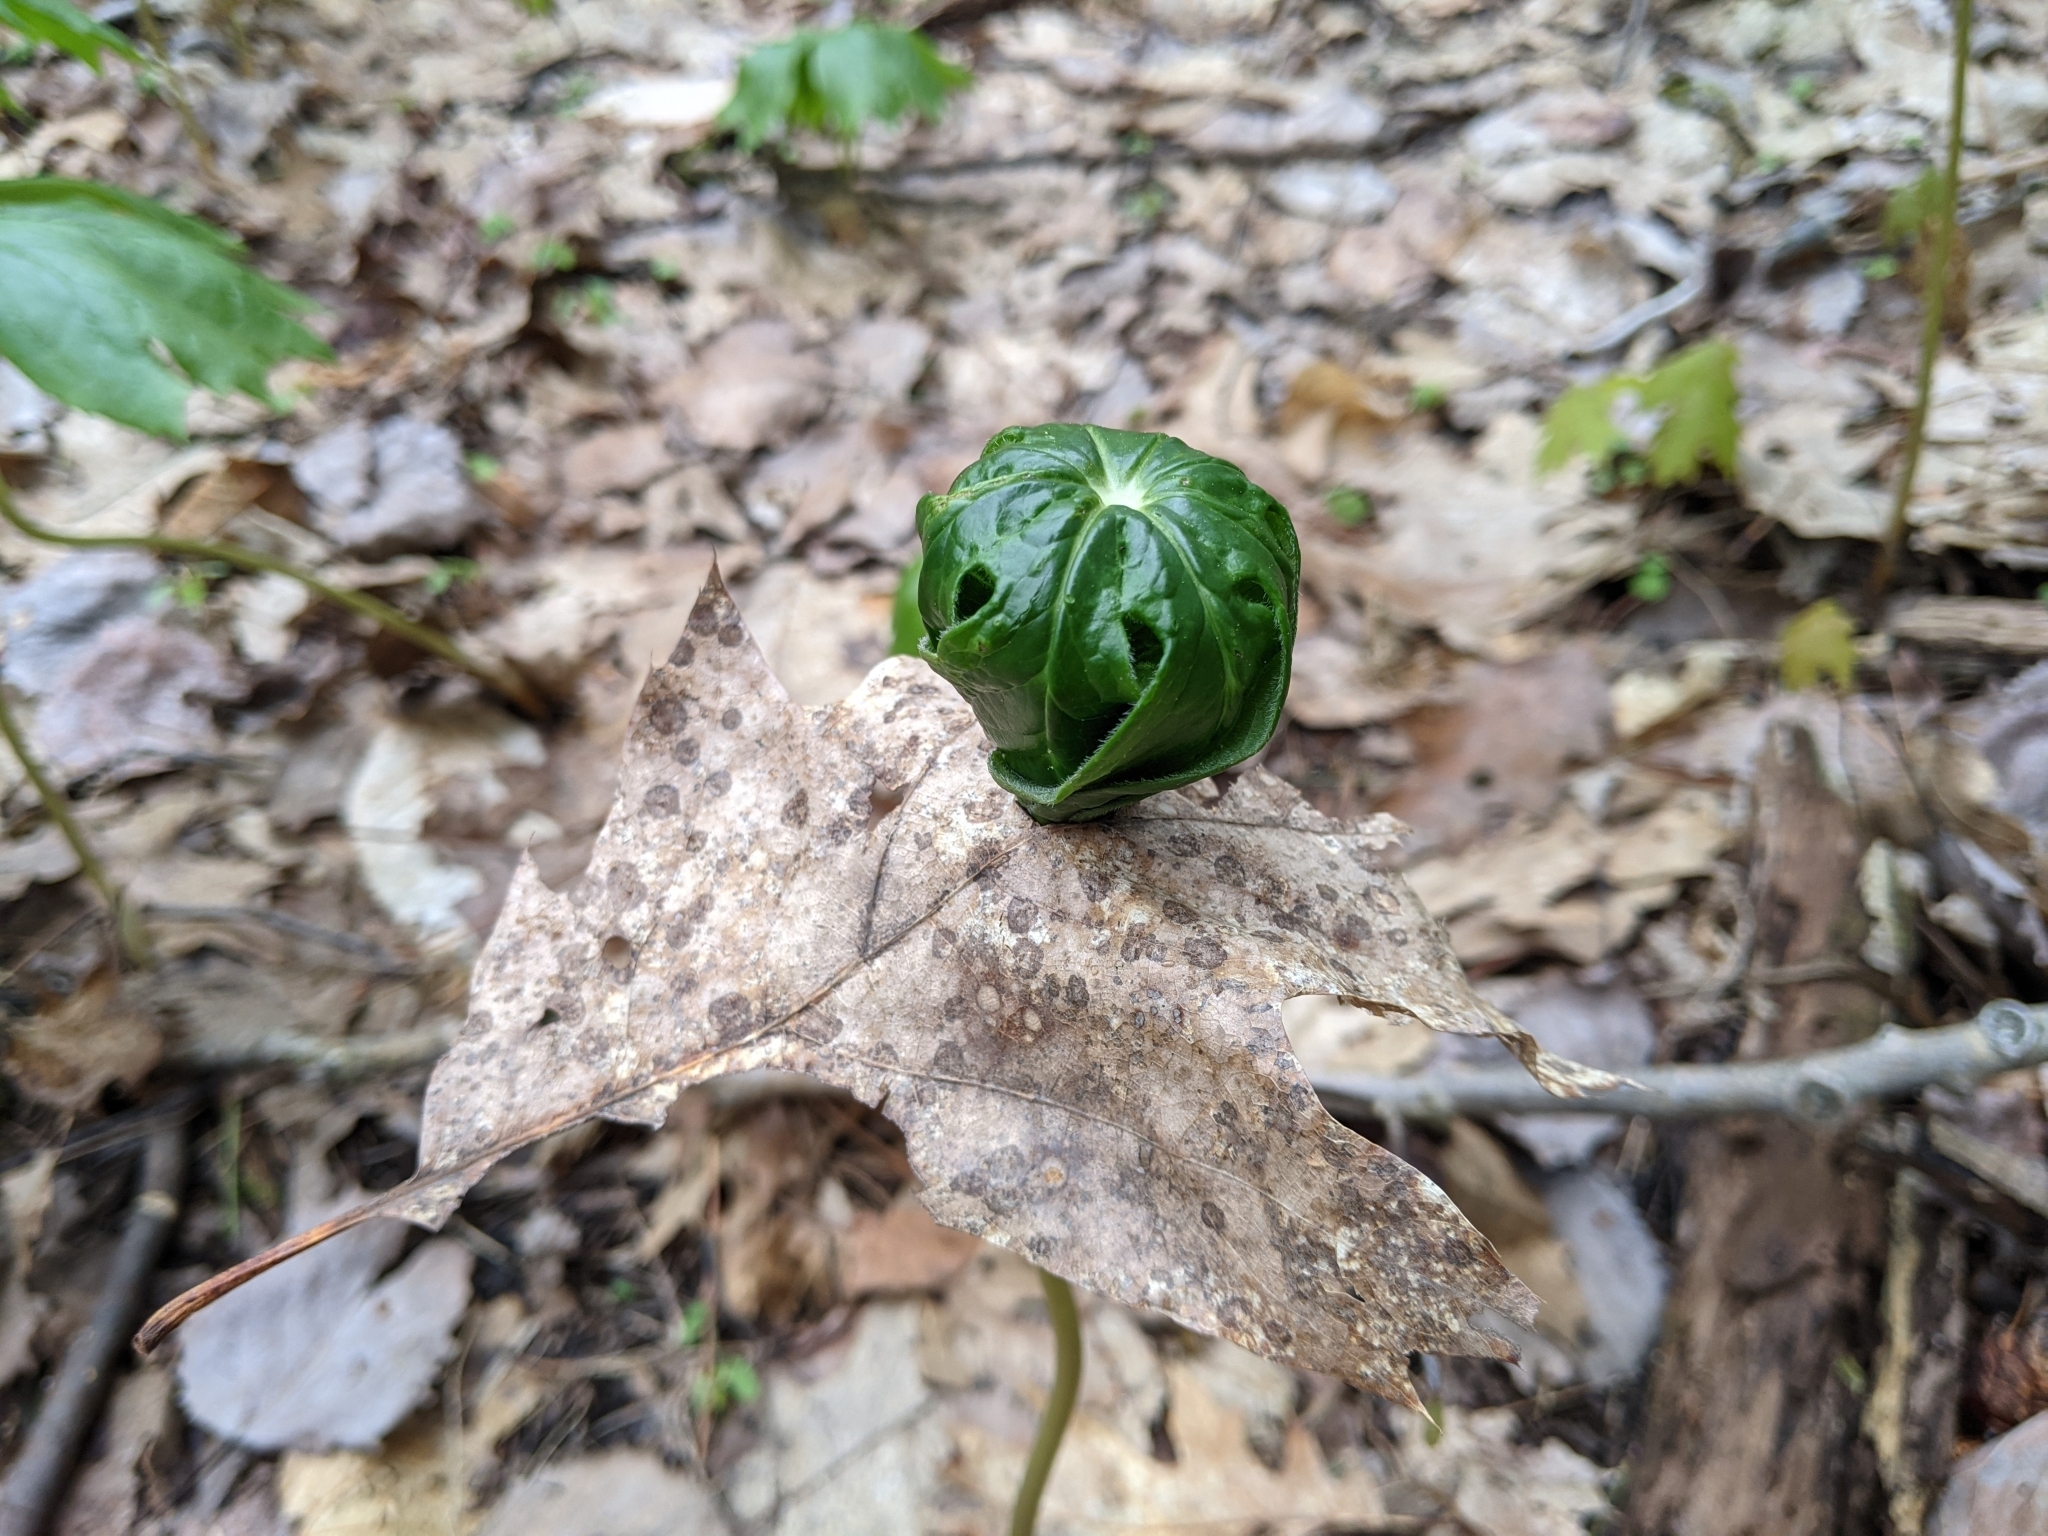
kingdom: Plantae
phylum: Tracheophyta
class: Magnoliopsida
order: Ranunculales
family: Berberidaceae
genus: Podophyllum
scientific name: Podophyllum peltatum
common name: Wild mandrake
